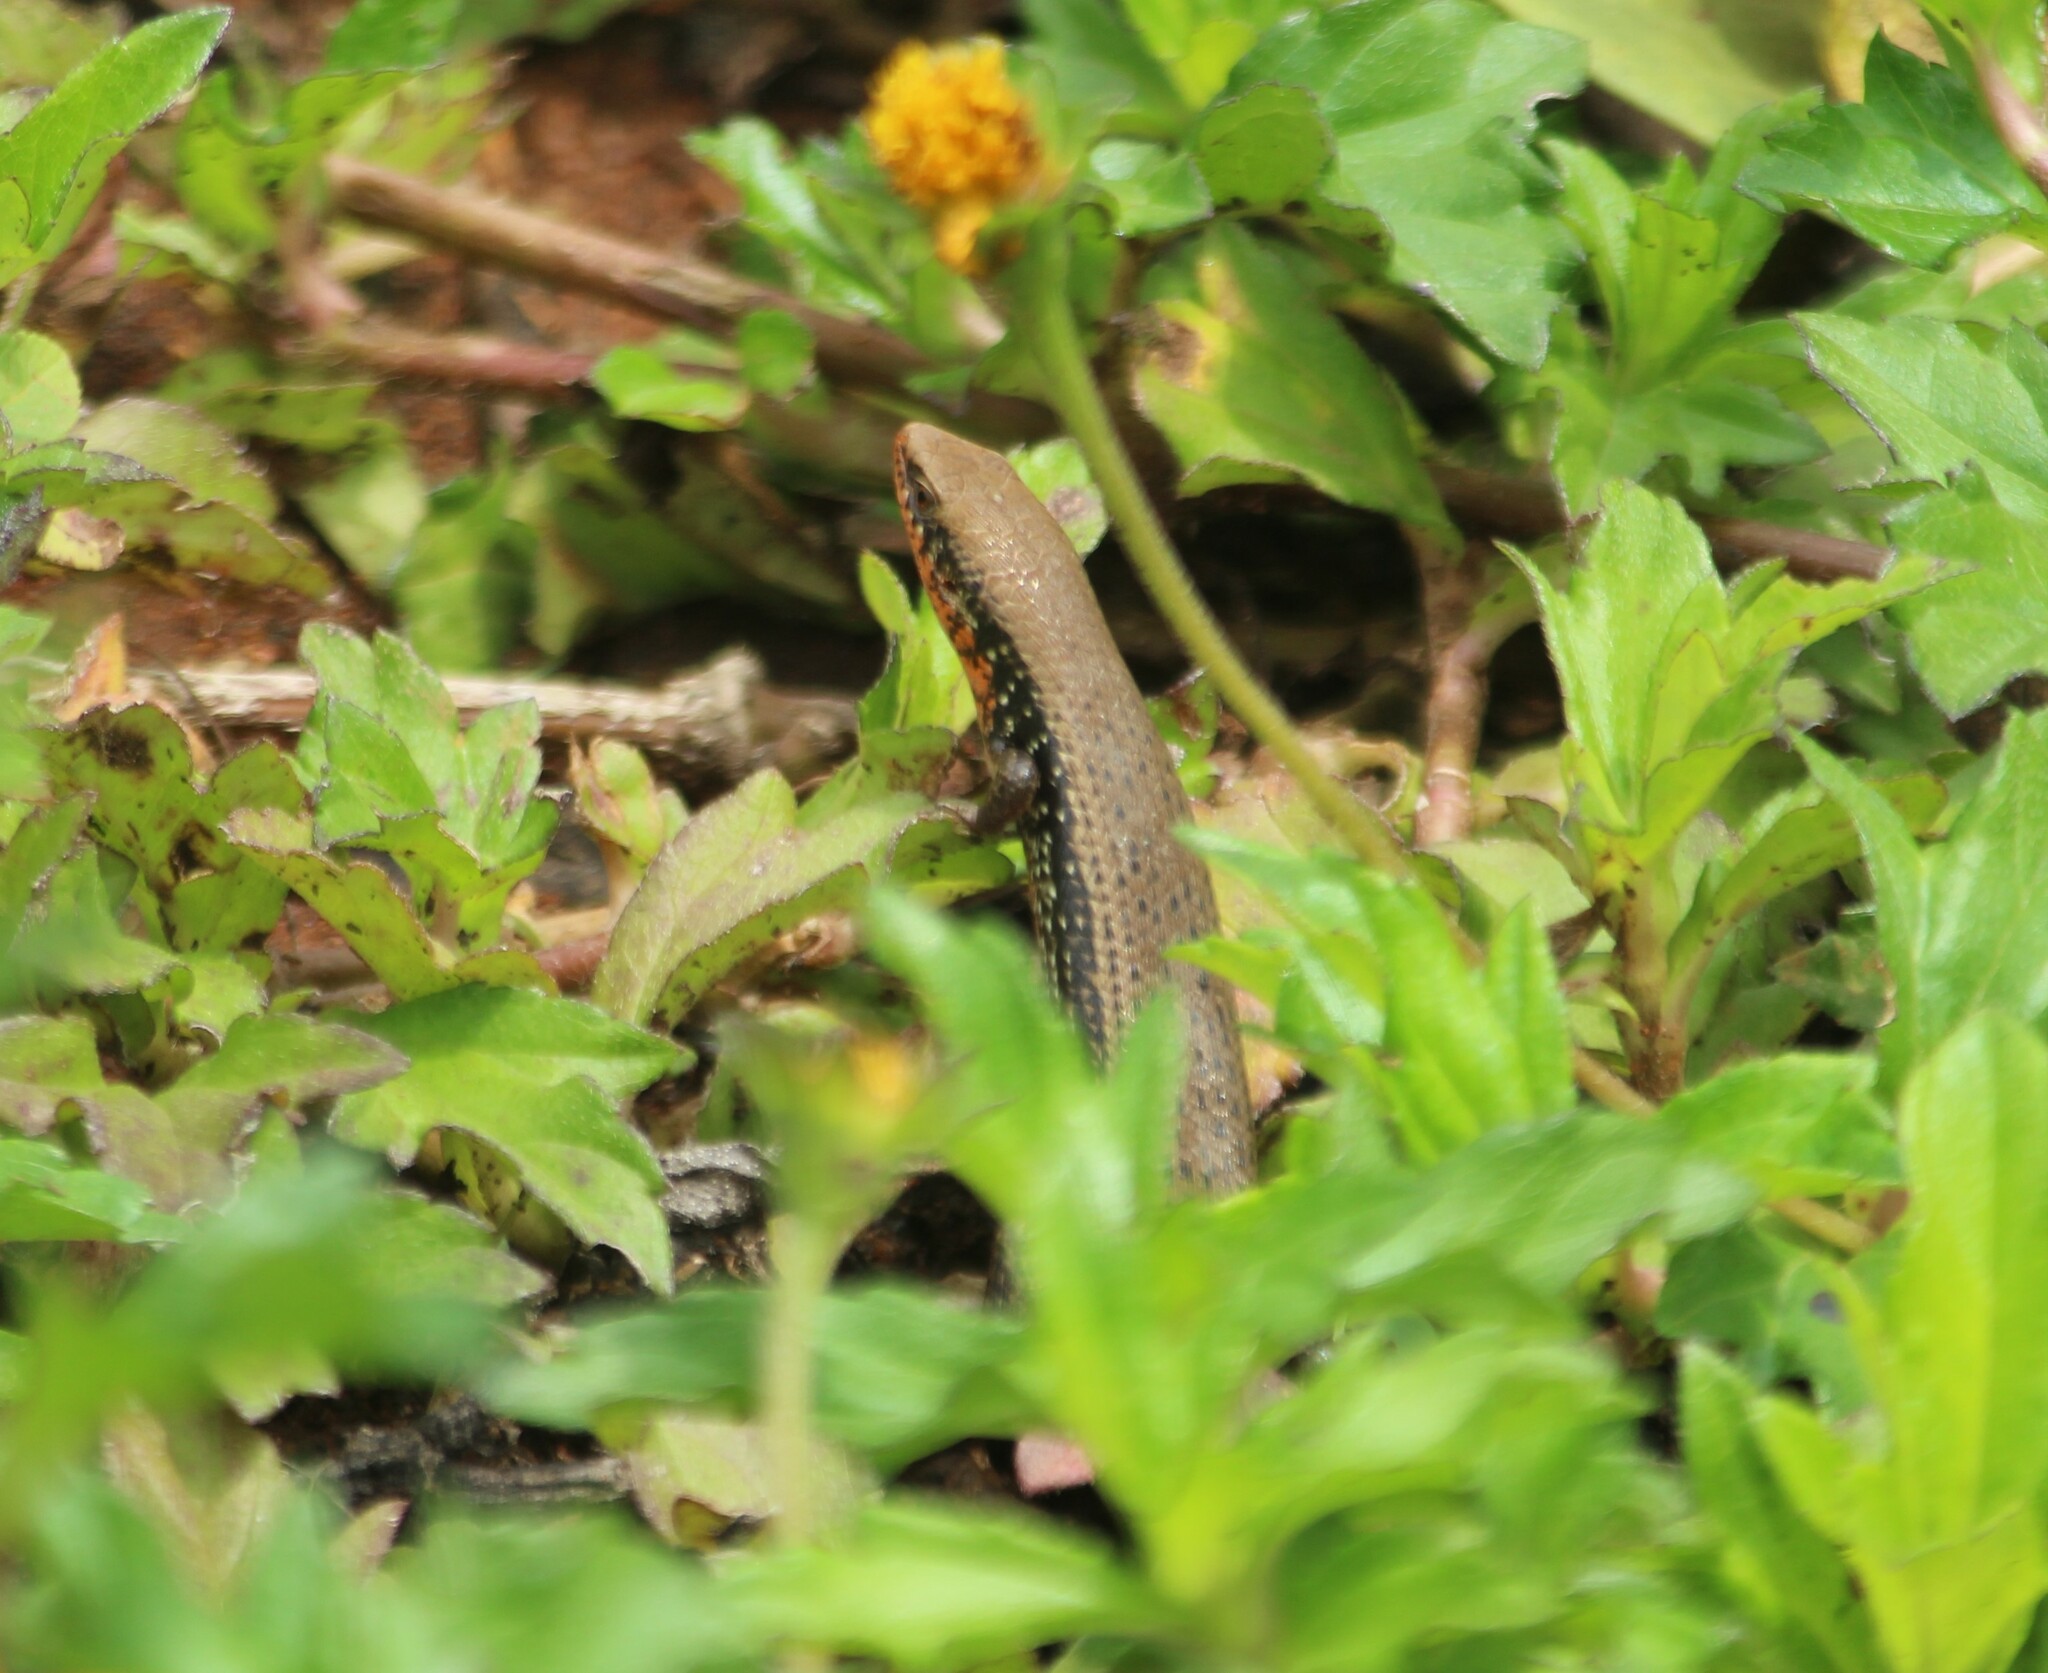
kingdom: Animalia
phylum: Chordata
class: Squamata
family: Scincidae
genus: Eutropis
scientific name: Eutropis macularia
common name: Bronze mabuya
